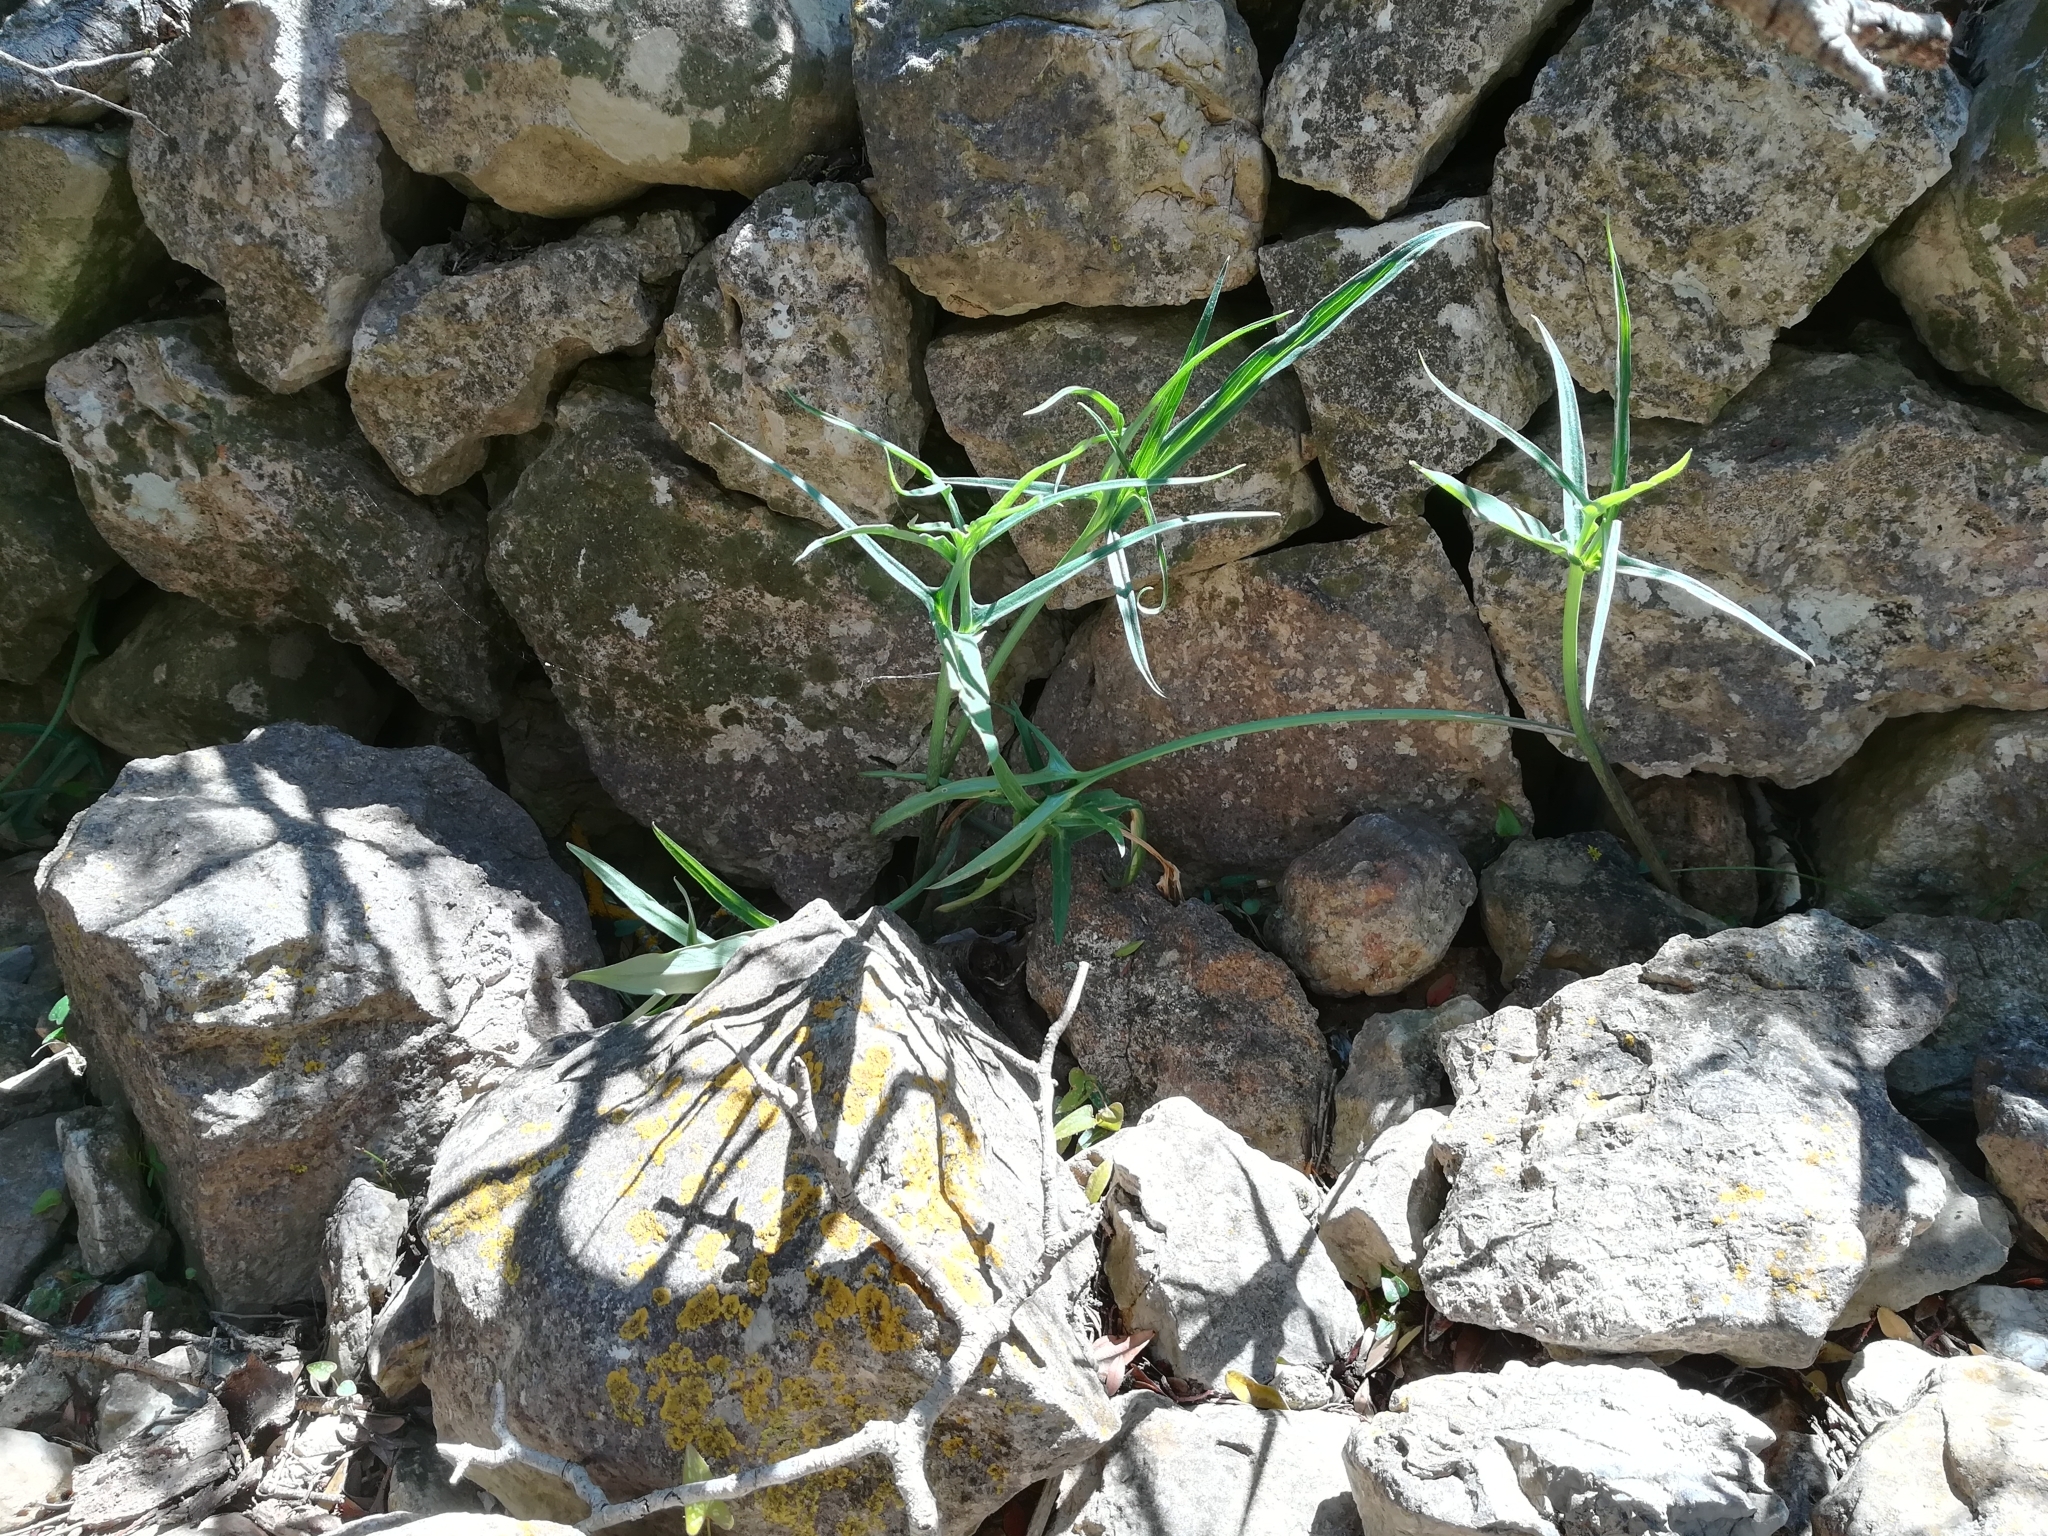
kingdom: Plantae
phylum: Tracheophyta
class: Liliopsida
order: Alismatales
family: Araceae
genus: Helicodiceros
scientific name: Helicodiceros muscivorus
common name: Snakeroot
